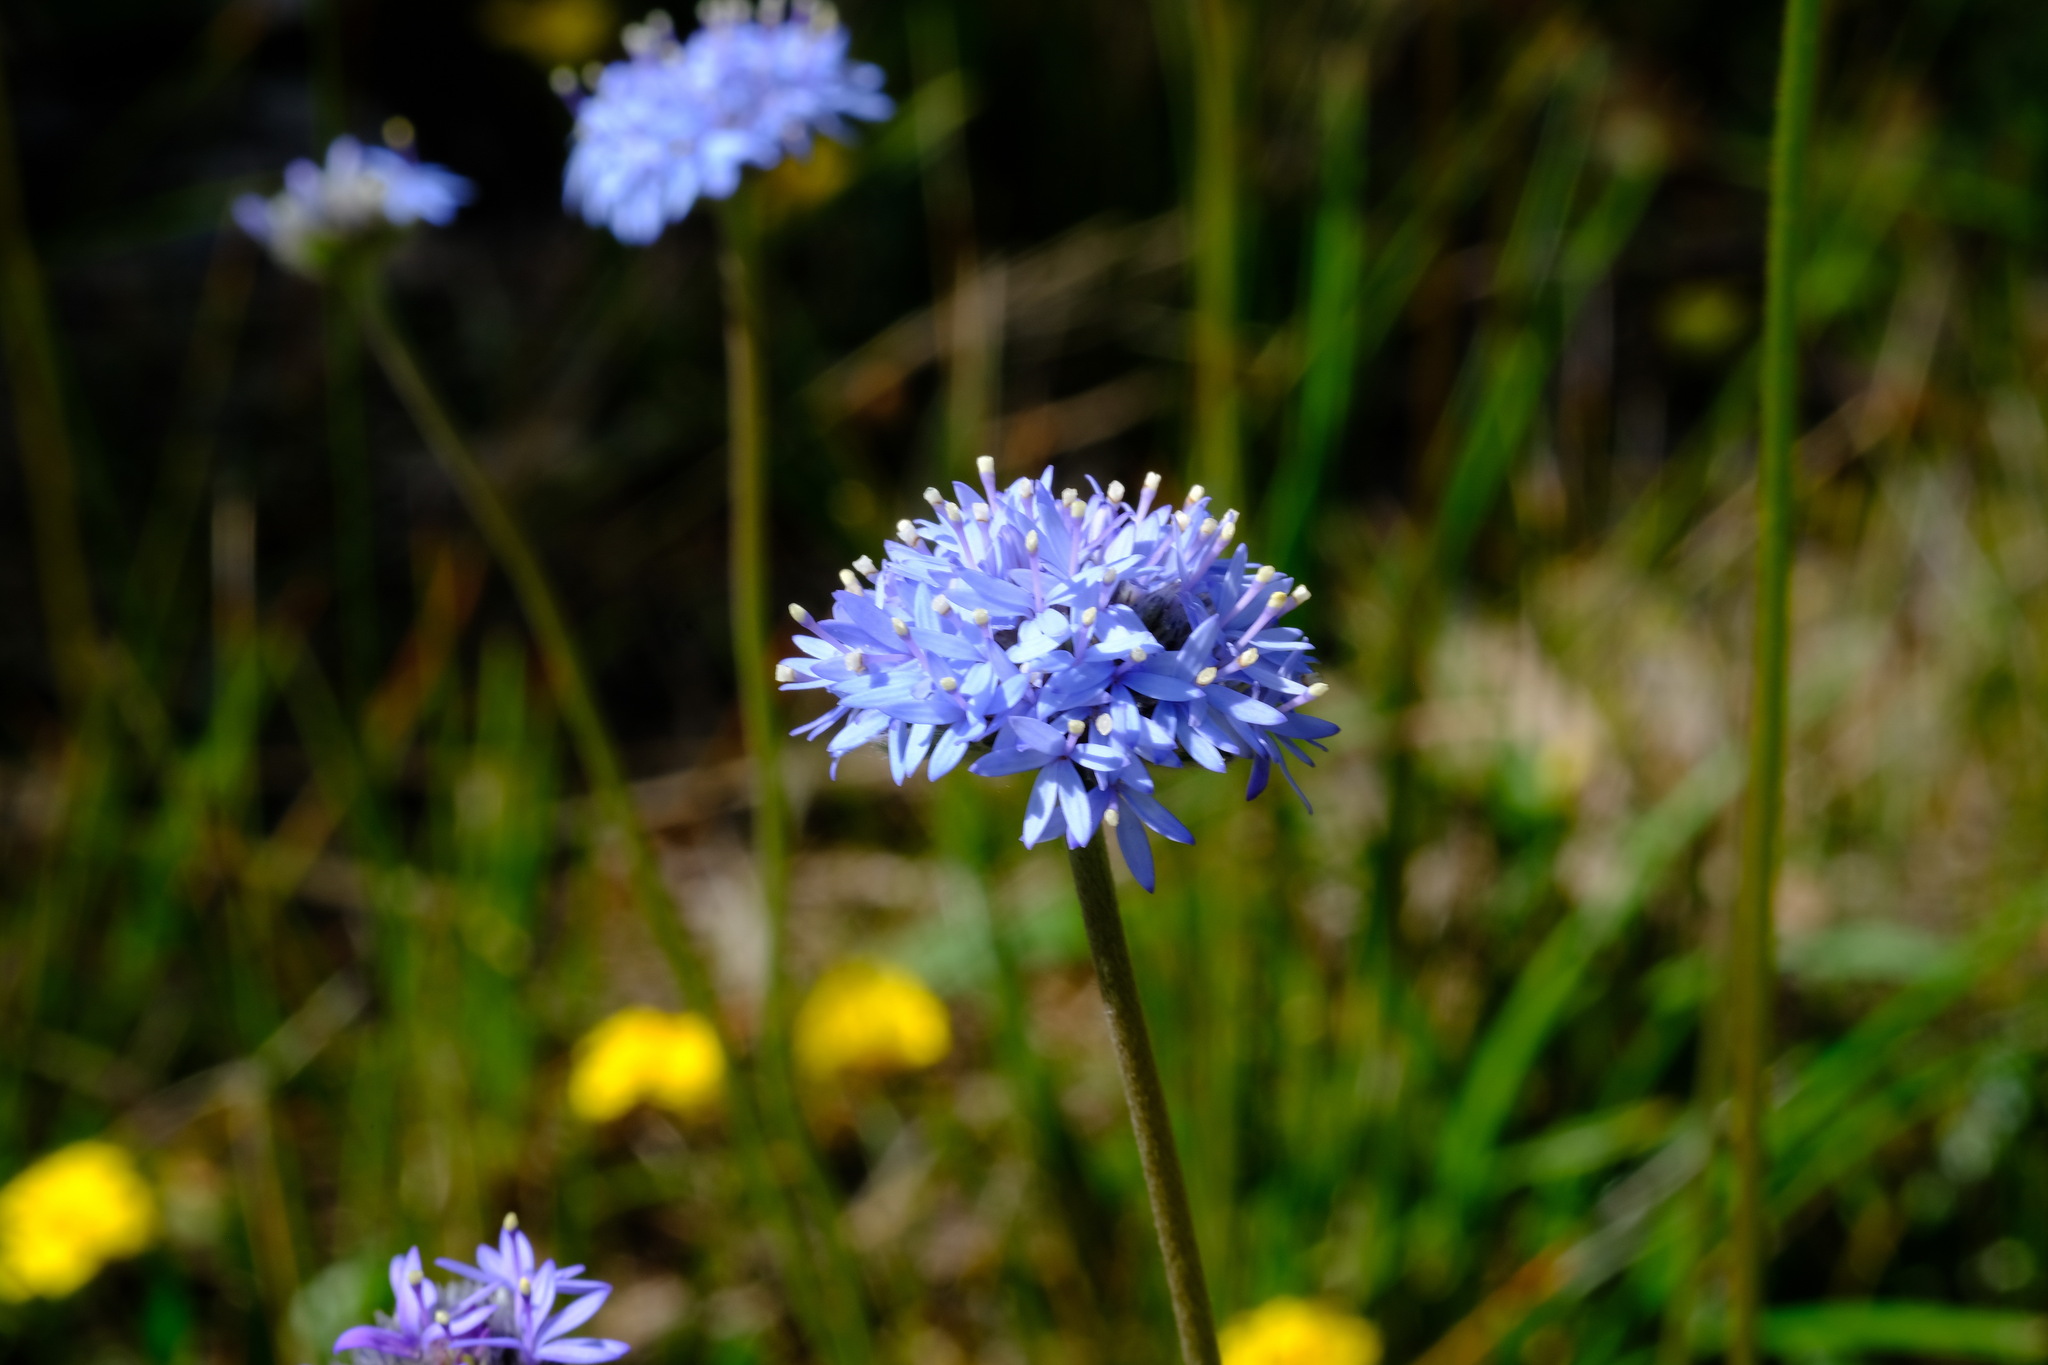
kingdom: Plantae
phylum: Tracheophyta
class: Magnoliopsida
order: Asterales
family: Goodeniaceae
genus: Brunonia
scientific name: Brunonia australis
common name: Blue pincushion
